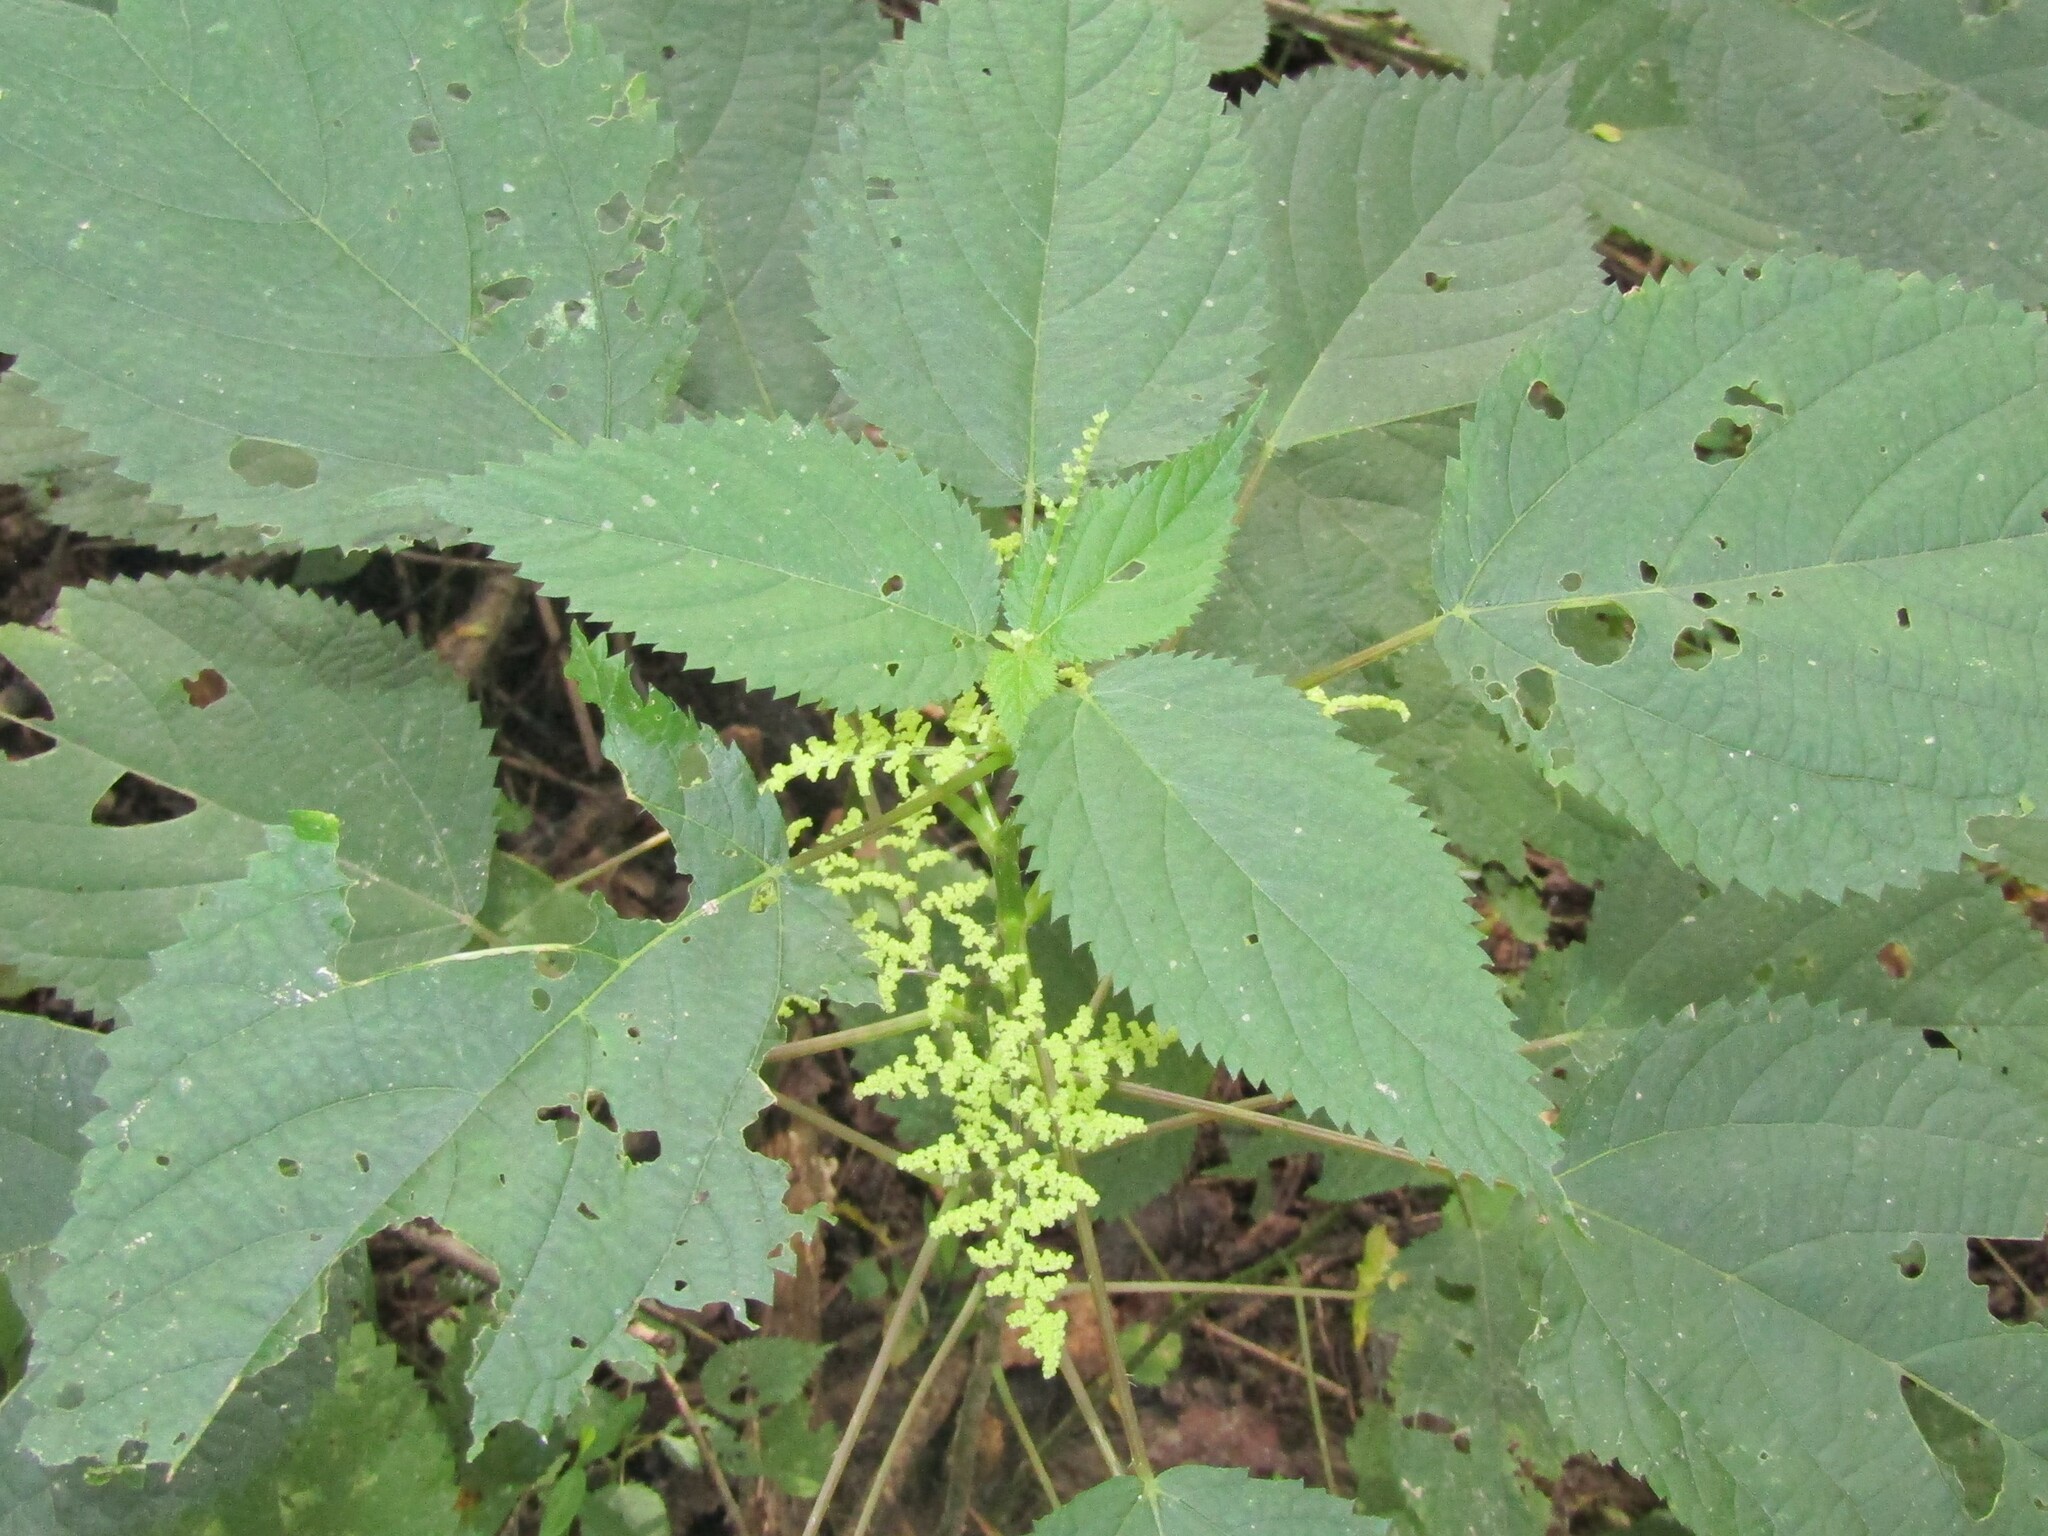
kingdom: Plantae
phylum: Tracheophyta
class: Magnoliopsida
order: Rosales
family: Urticaceae
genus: Laportea
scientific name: Laportea canadensis
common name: Canada nettle
